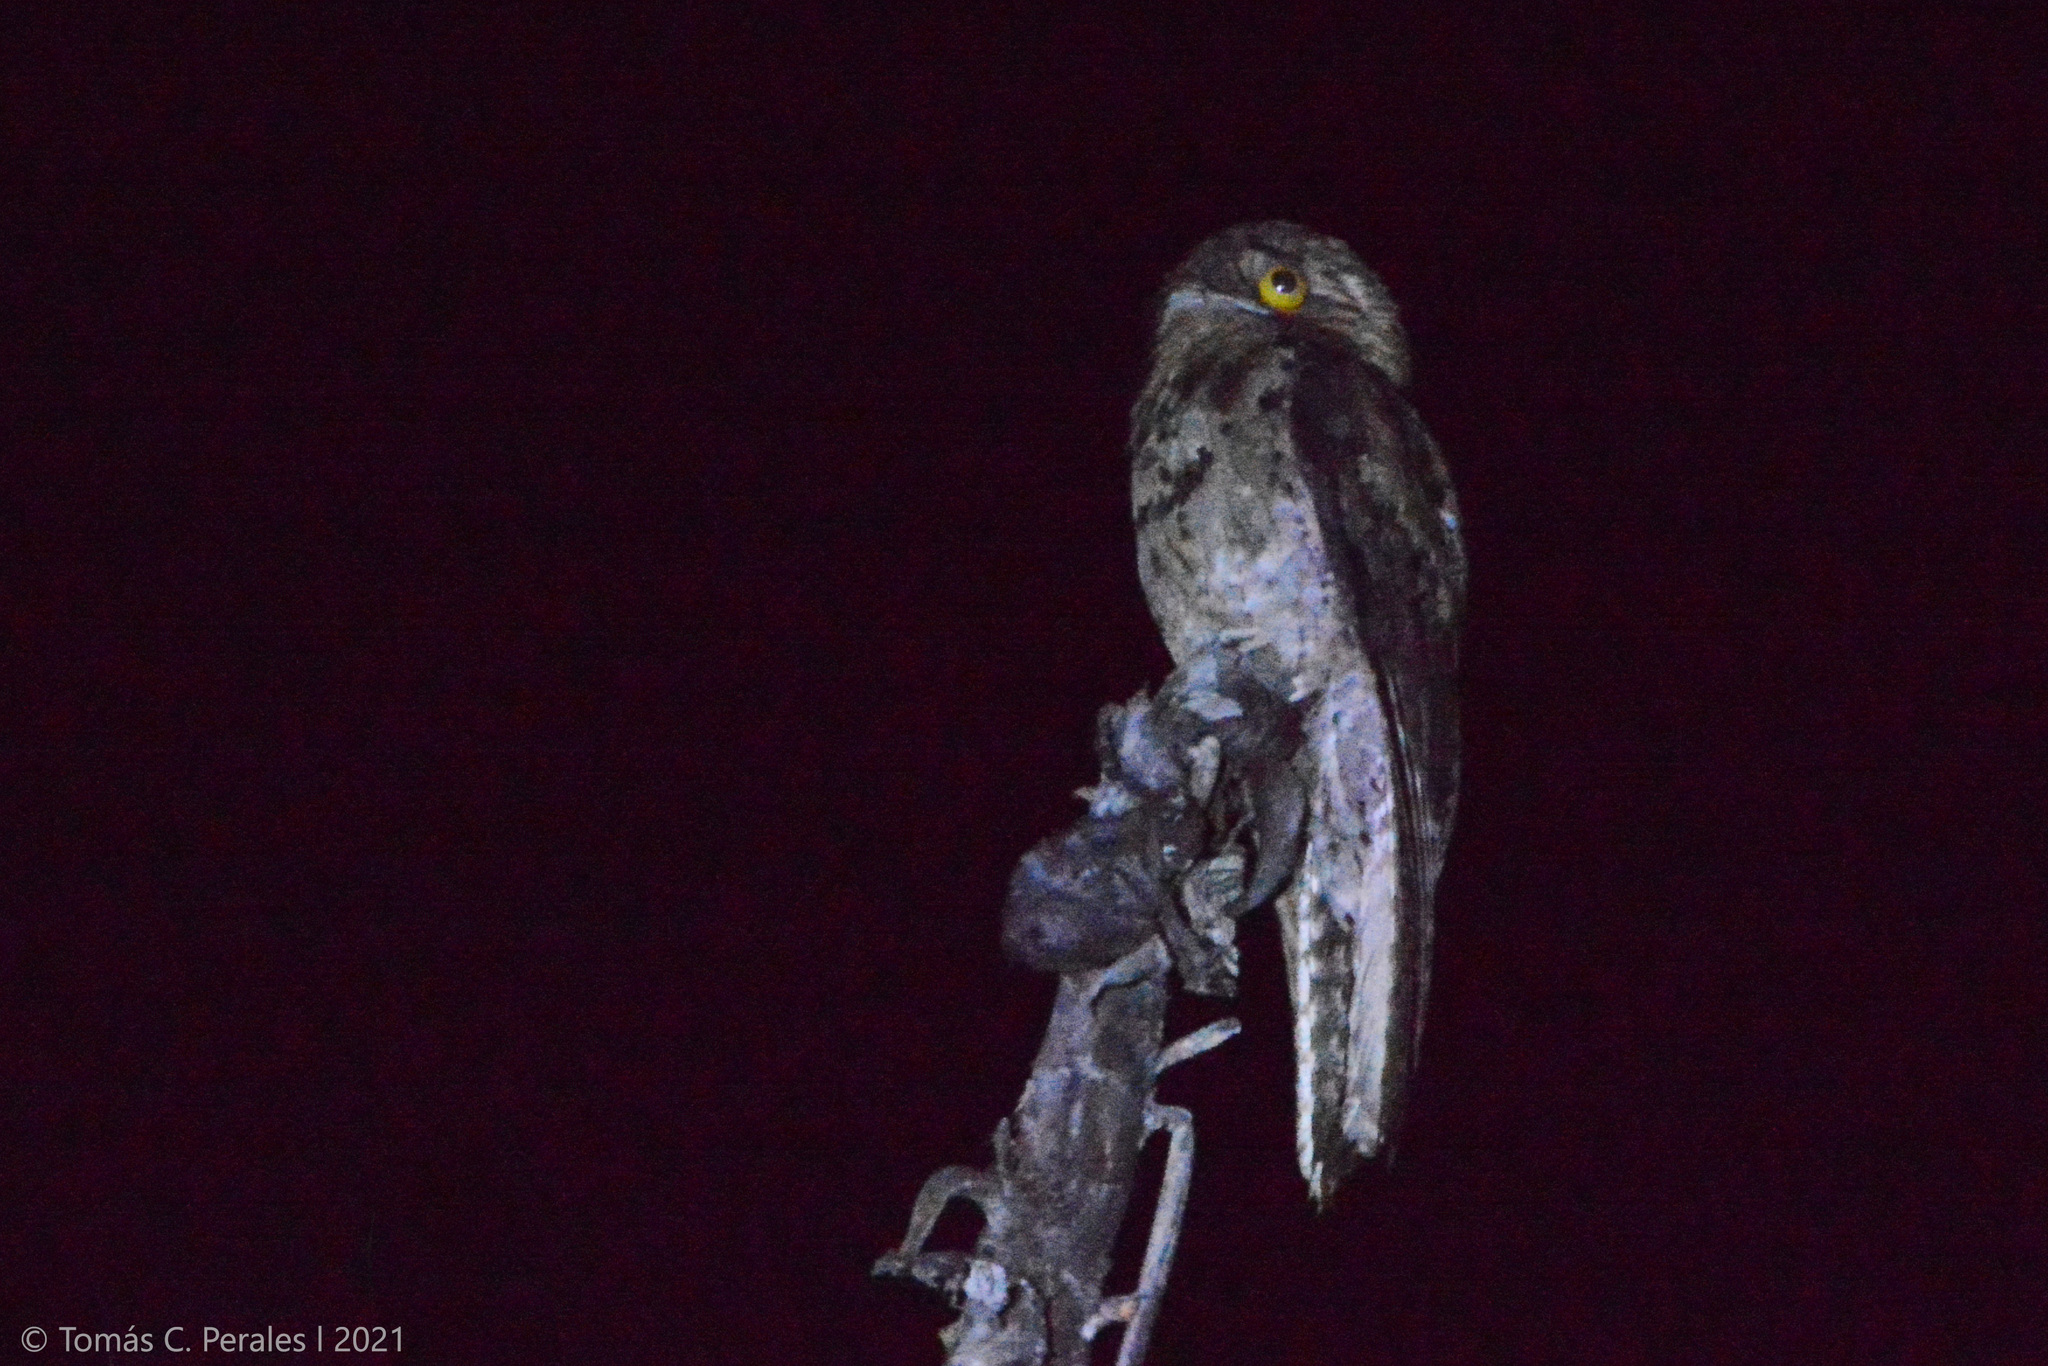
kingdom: Animalia
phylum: Chordata
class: Aves
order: Nyctibiiformes
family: Nyctibiidae
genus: Nyctibius
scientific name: Nyctibius griseus
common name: Common potoo
